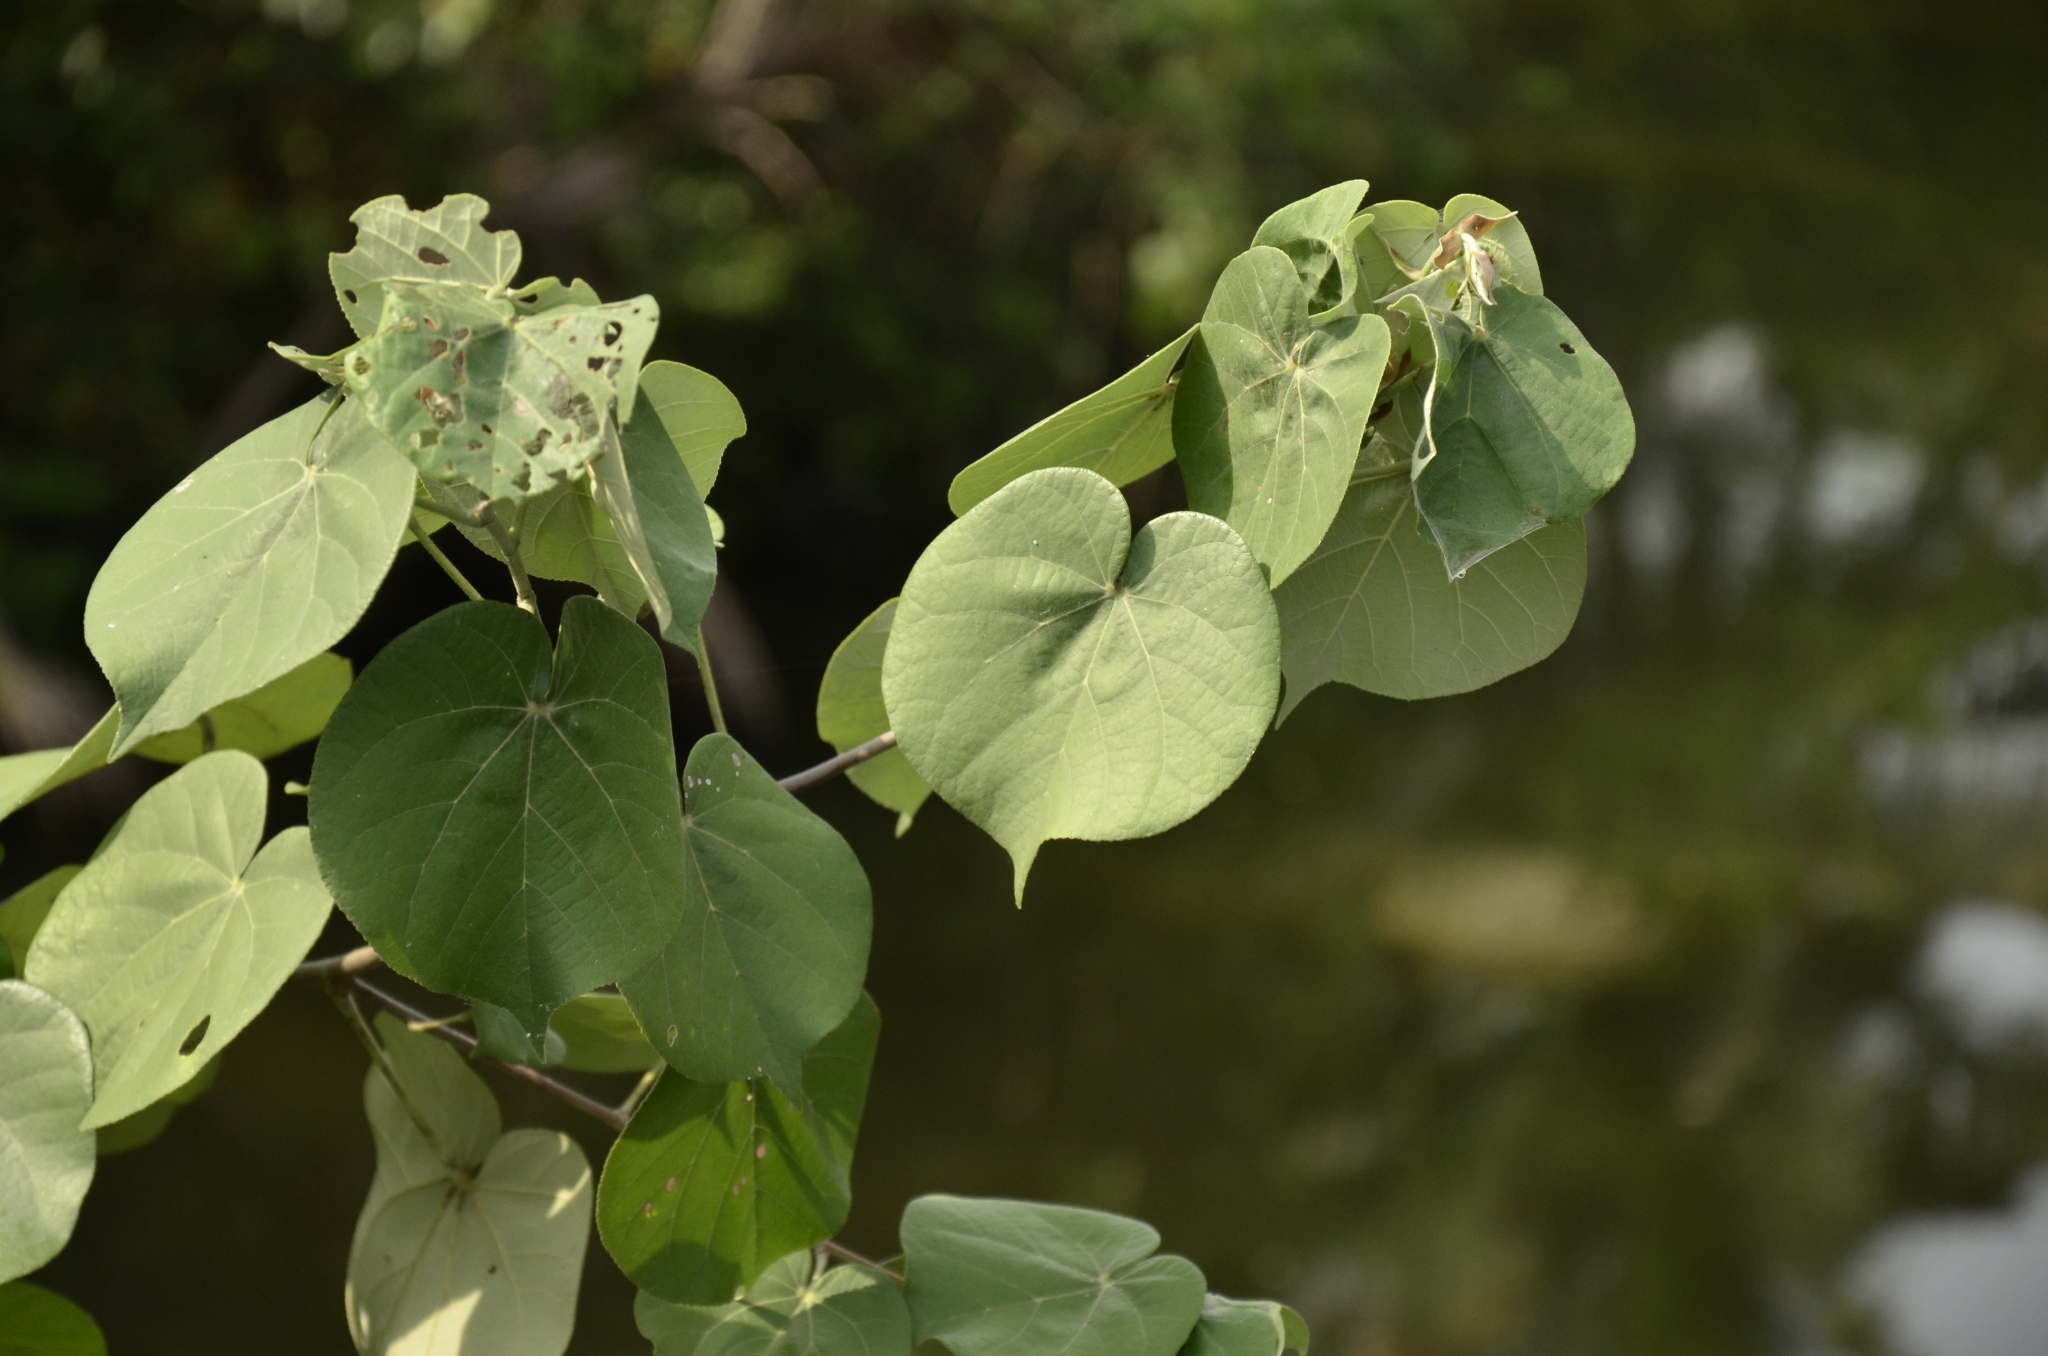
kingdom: Plantae
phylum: Tracheophyta
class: Magnoliopsida
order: Malvales
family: Malvaceae
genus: Talipariti
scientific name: Talipariti tiliaceum
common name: Sea hibiscus
